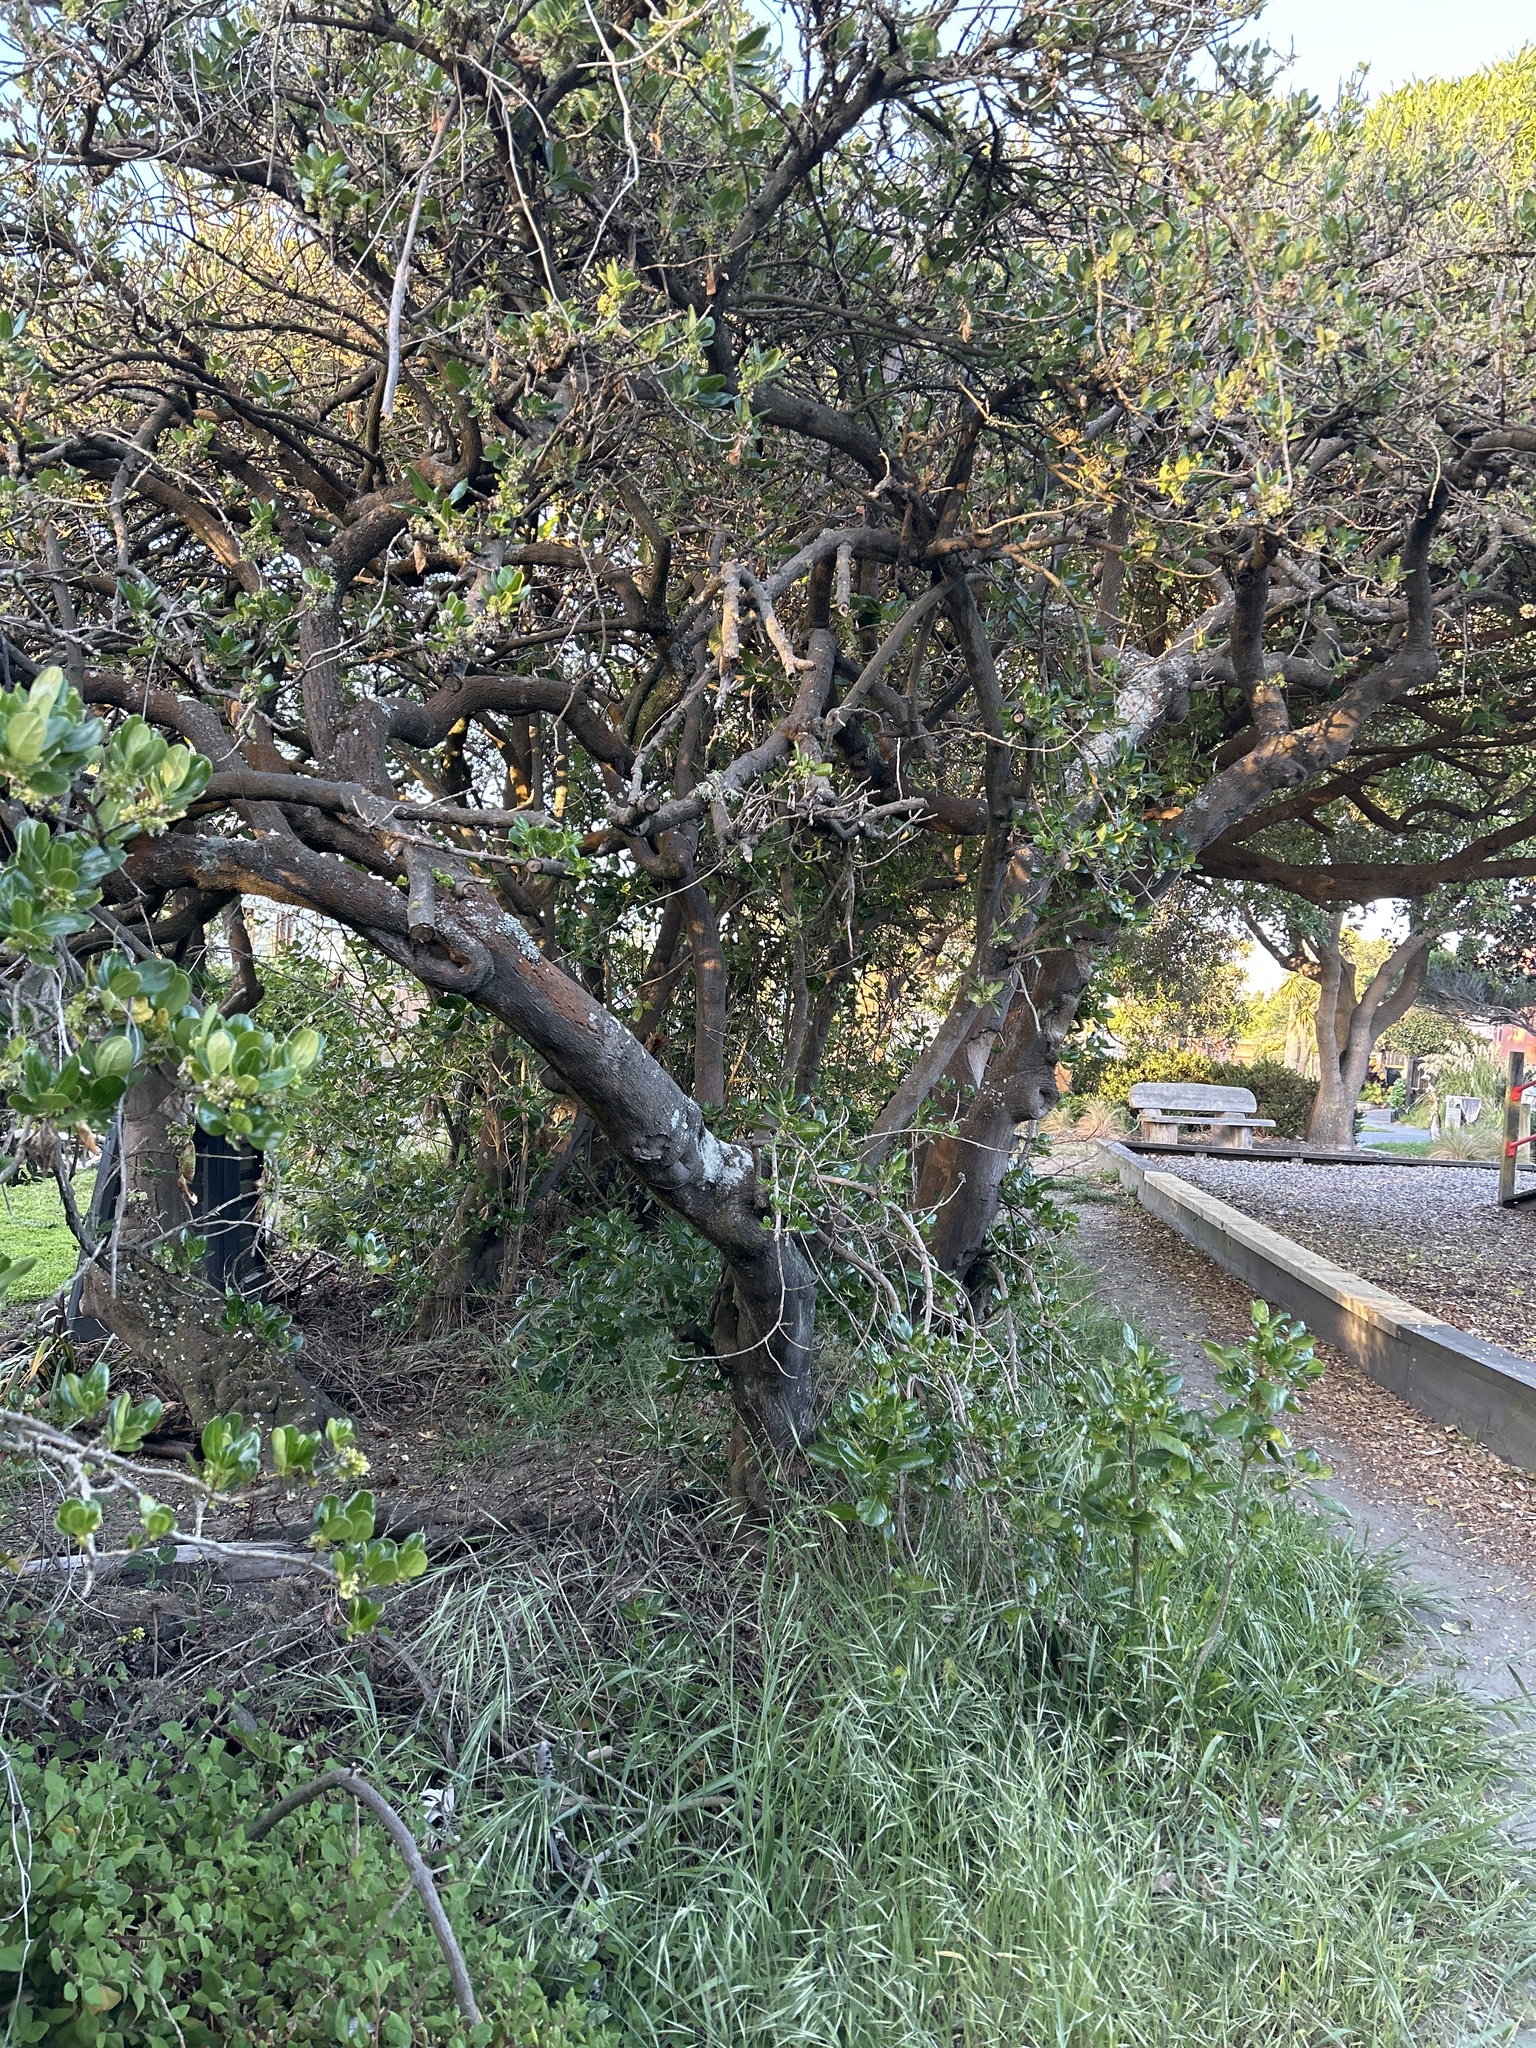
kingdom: Plantae
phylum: Tracheophyta
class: Magnoliopsida
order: Gentianales
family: Rubiaceae
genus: Coprosma
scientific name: Coprosma repens
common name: Tree bedstraw
